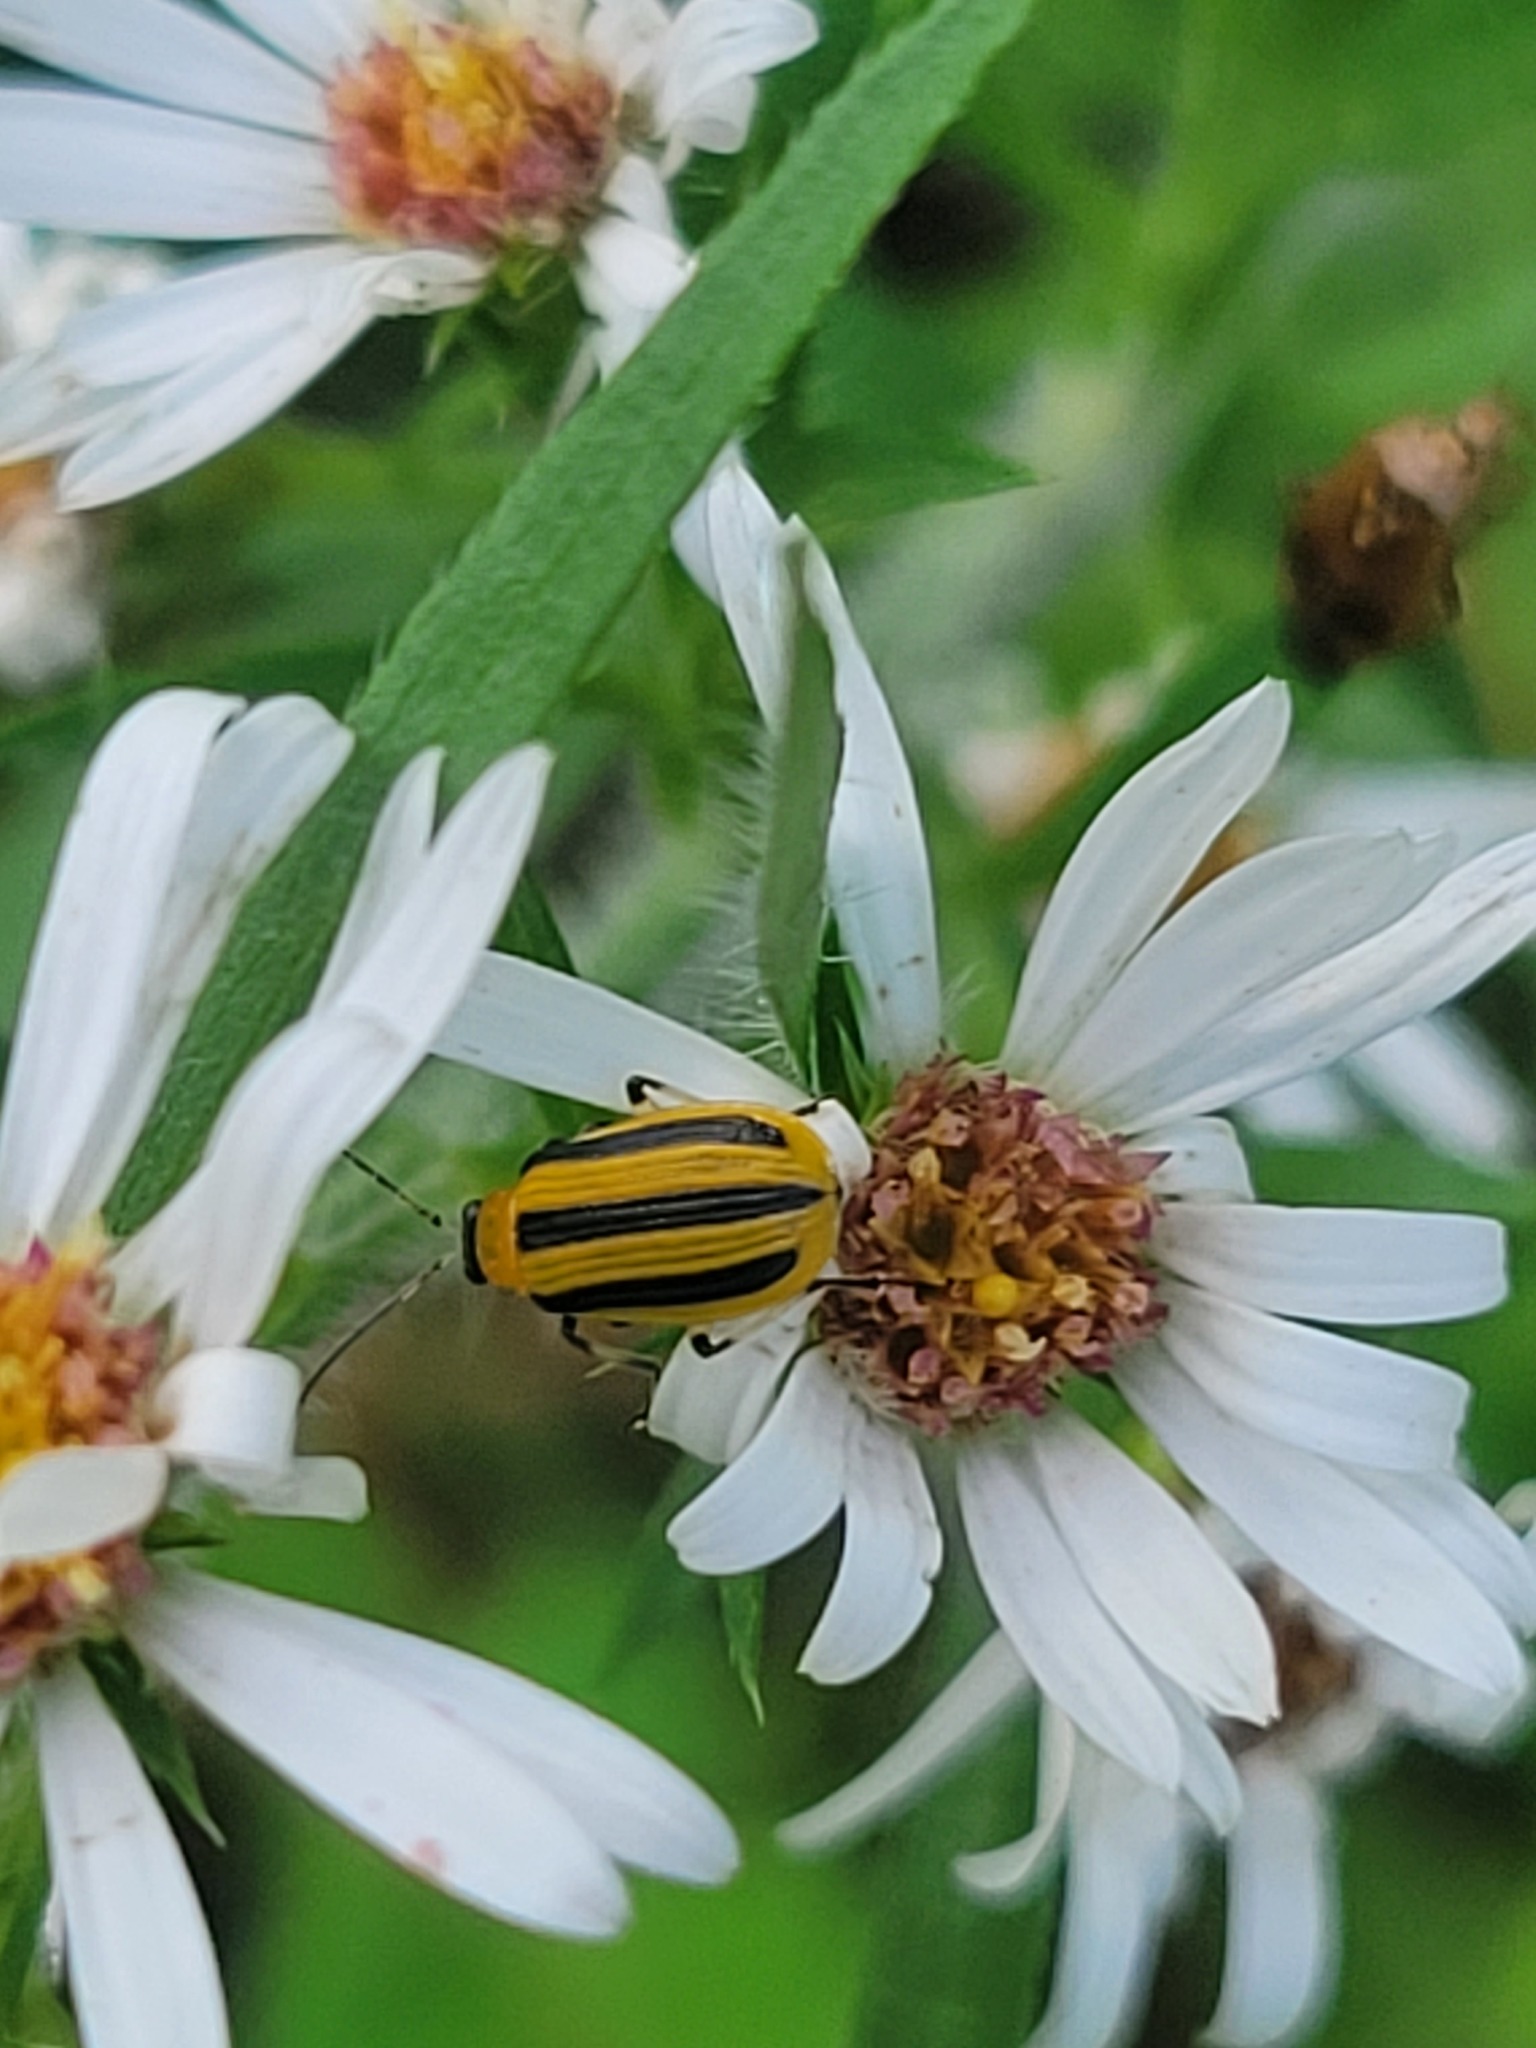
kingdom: Animalia
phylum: Arthropoda
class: Insecta
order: Coleoptera
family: Chrysomelidae
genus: Acalymma
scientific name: Acalymma vittatum
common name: Striped cucumber beetle
